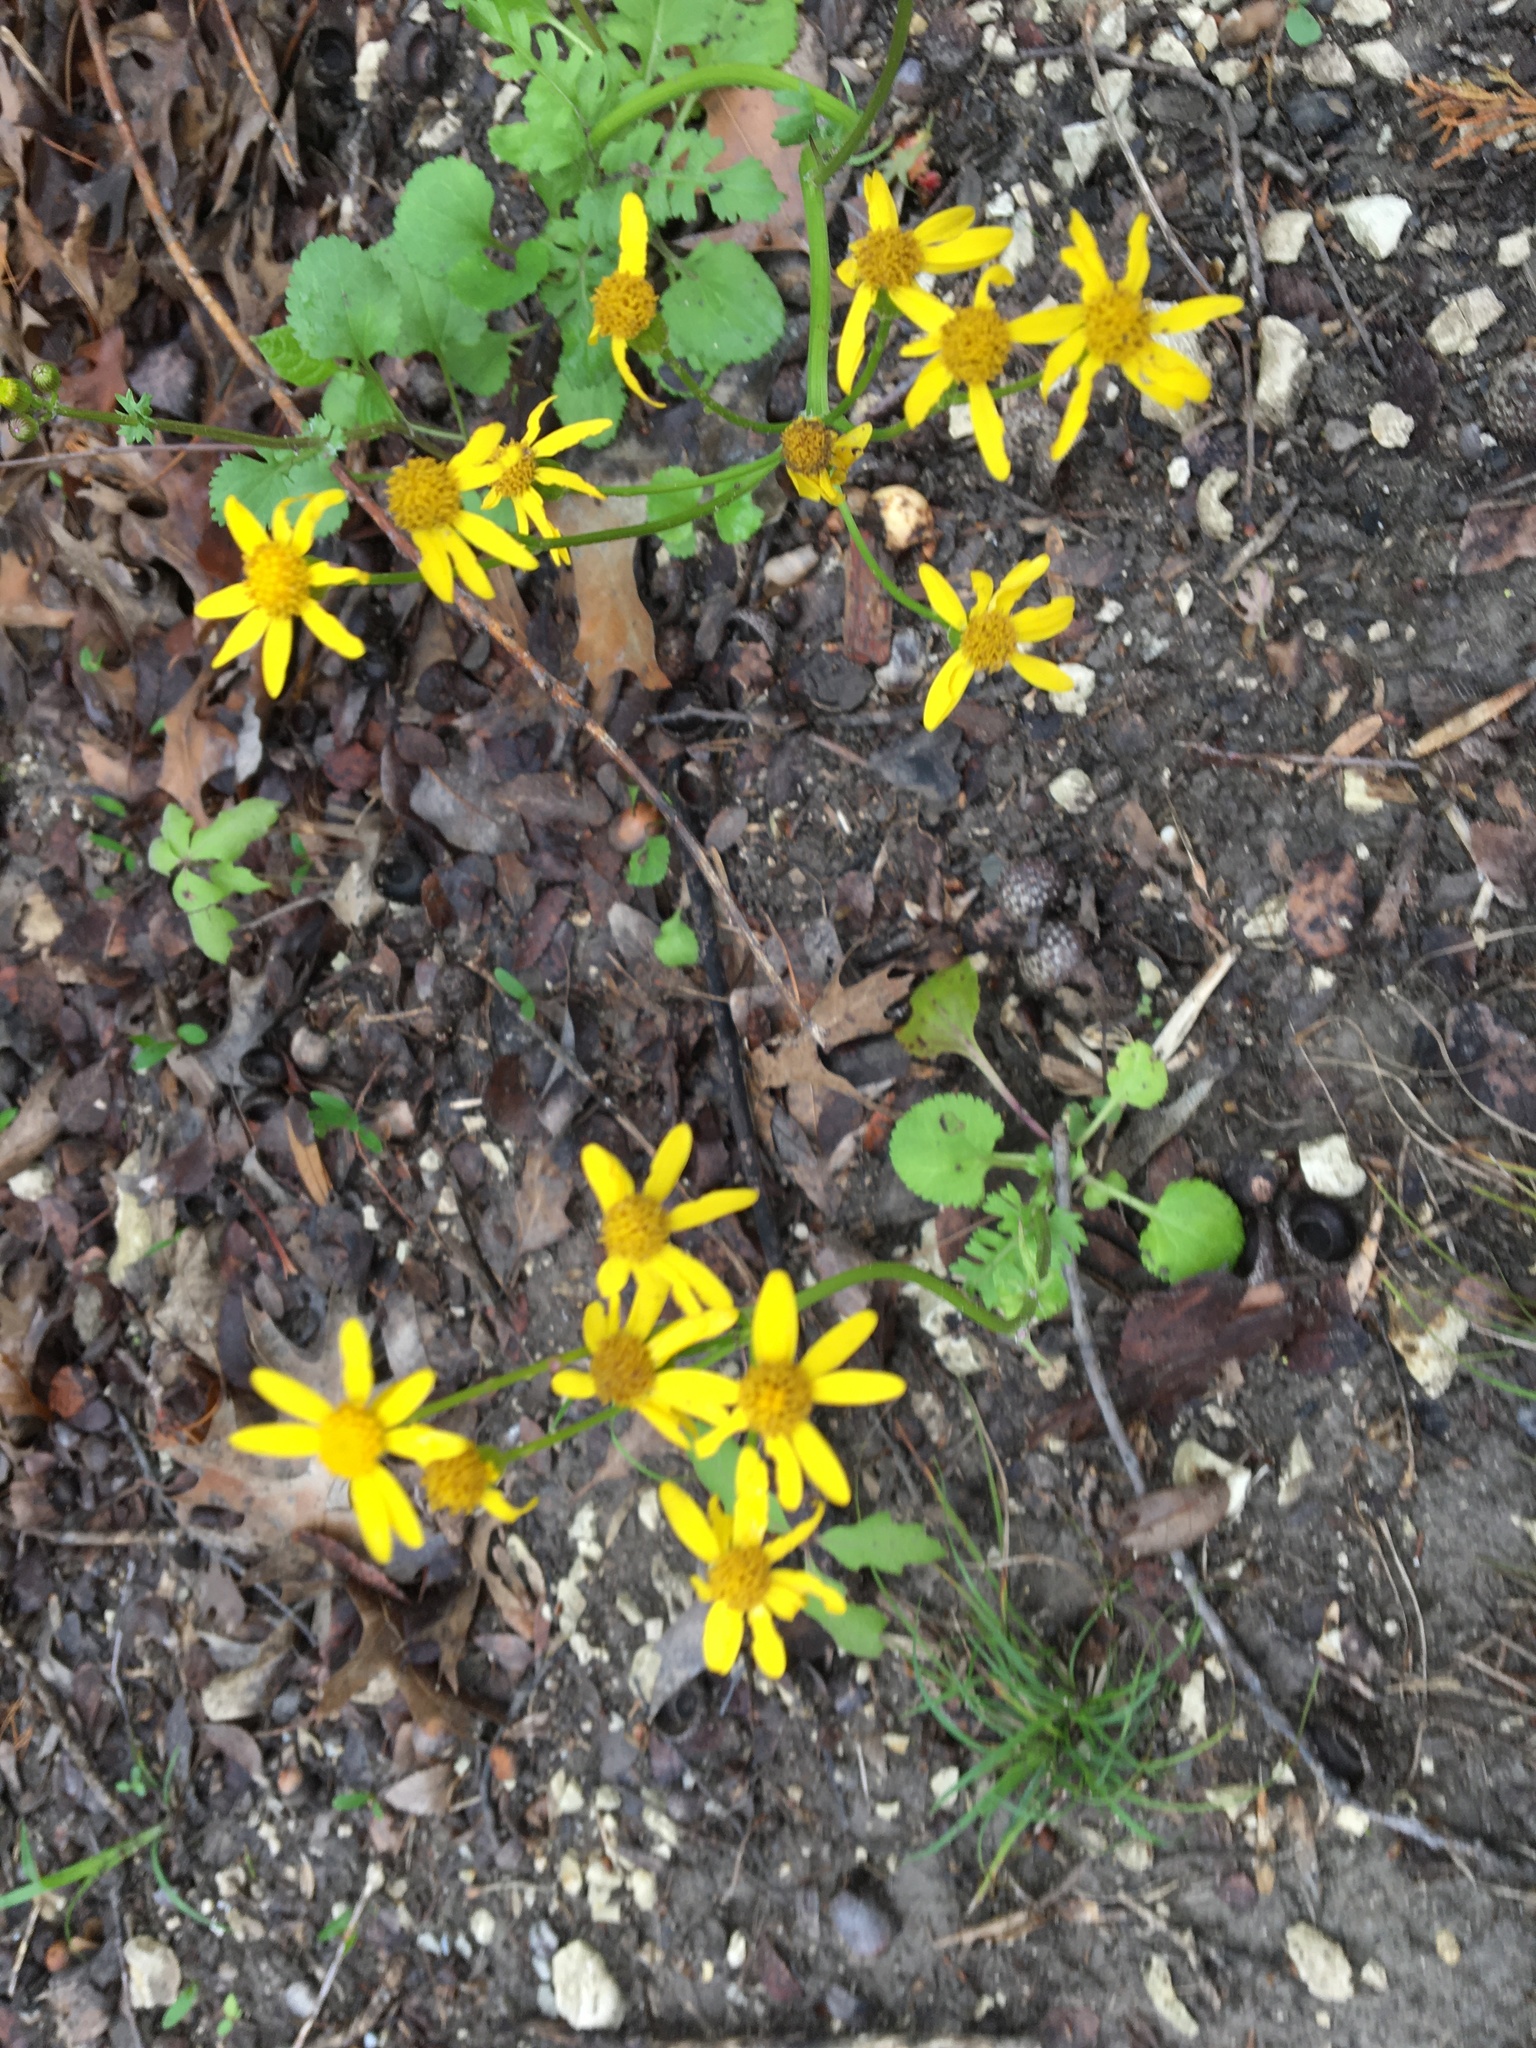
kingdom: Plantae
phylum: Tracheophyta
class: Magnoliopsida
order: Asterales
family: Asteraceae
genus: Packera
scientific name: Packera obovata
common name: Round-leaf ragwort
